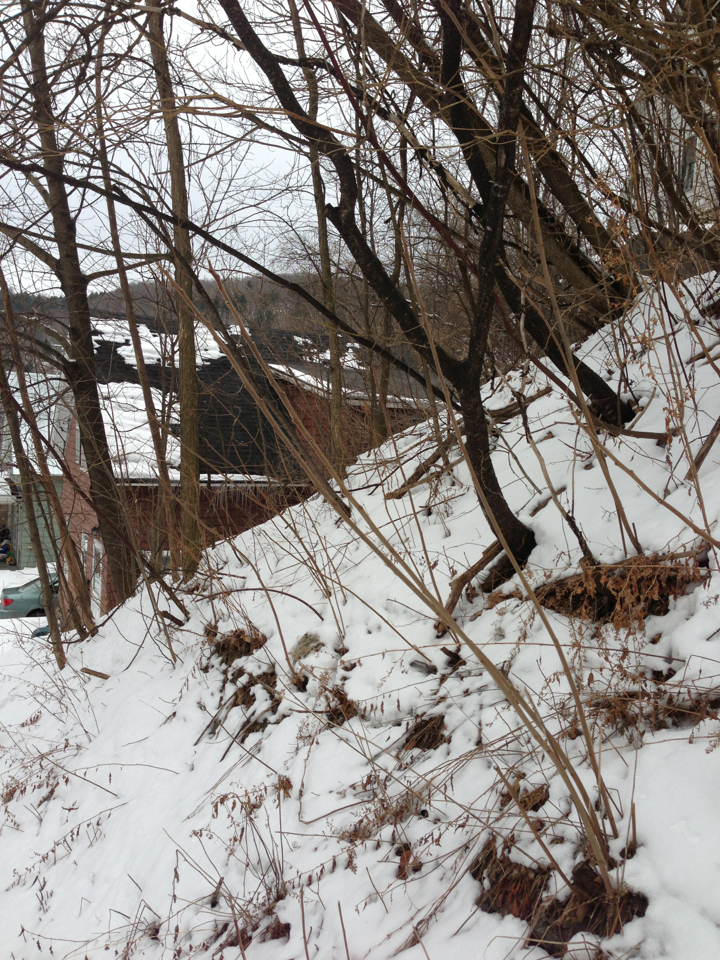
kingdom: Plantae
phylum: Tracheophyta
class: Magnoliopsida
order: Sapindales
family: Anacardiaceae
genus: Rhus
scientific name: Rhus typhina
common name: Staghorn sumac
